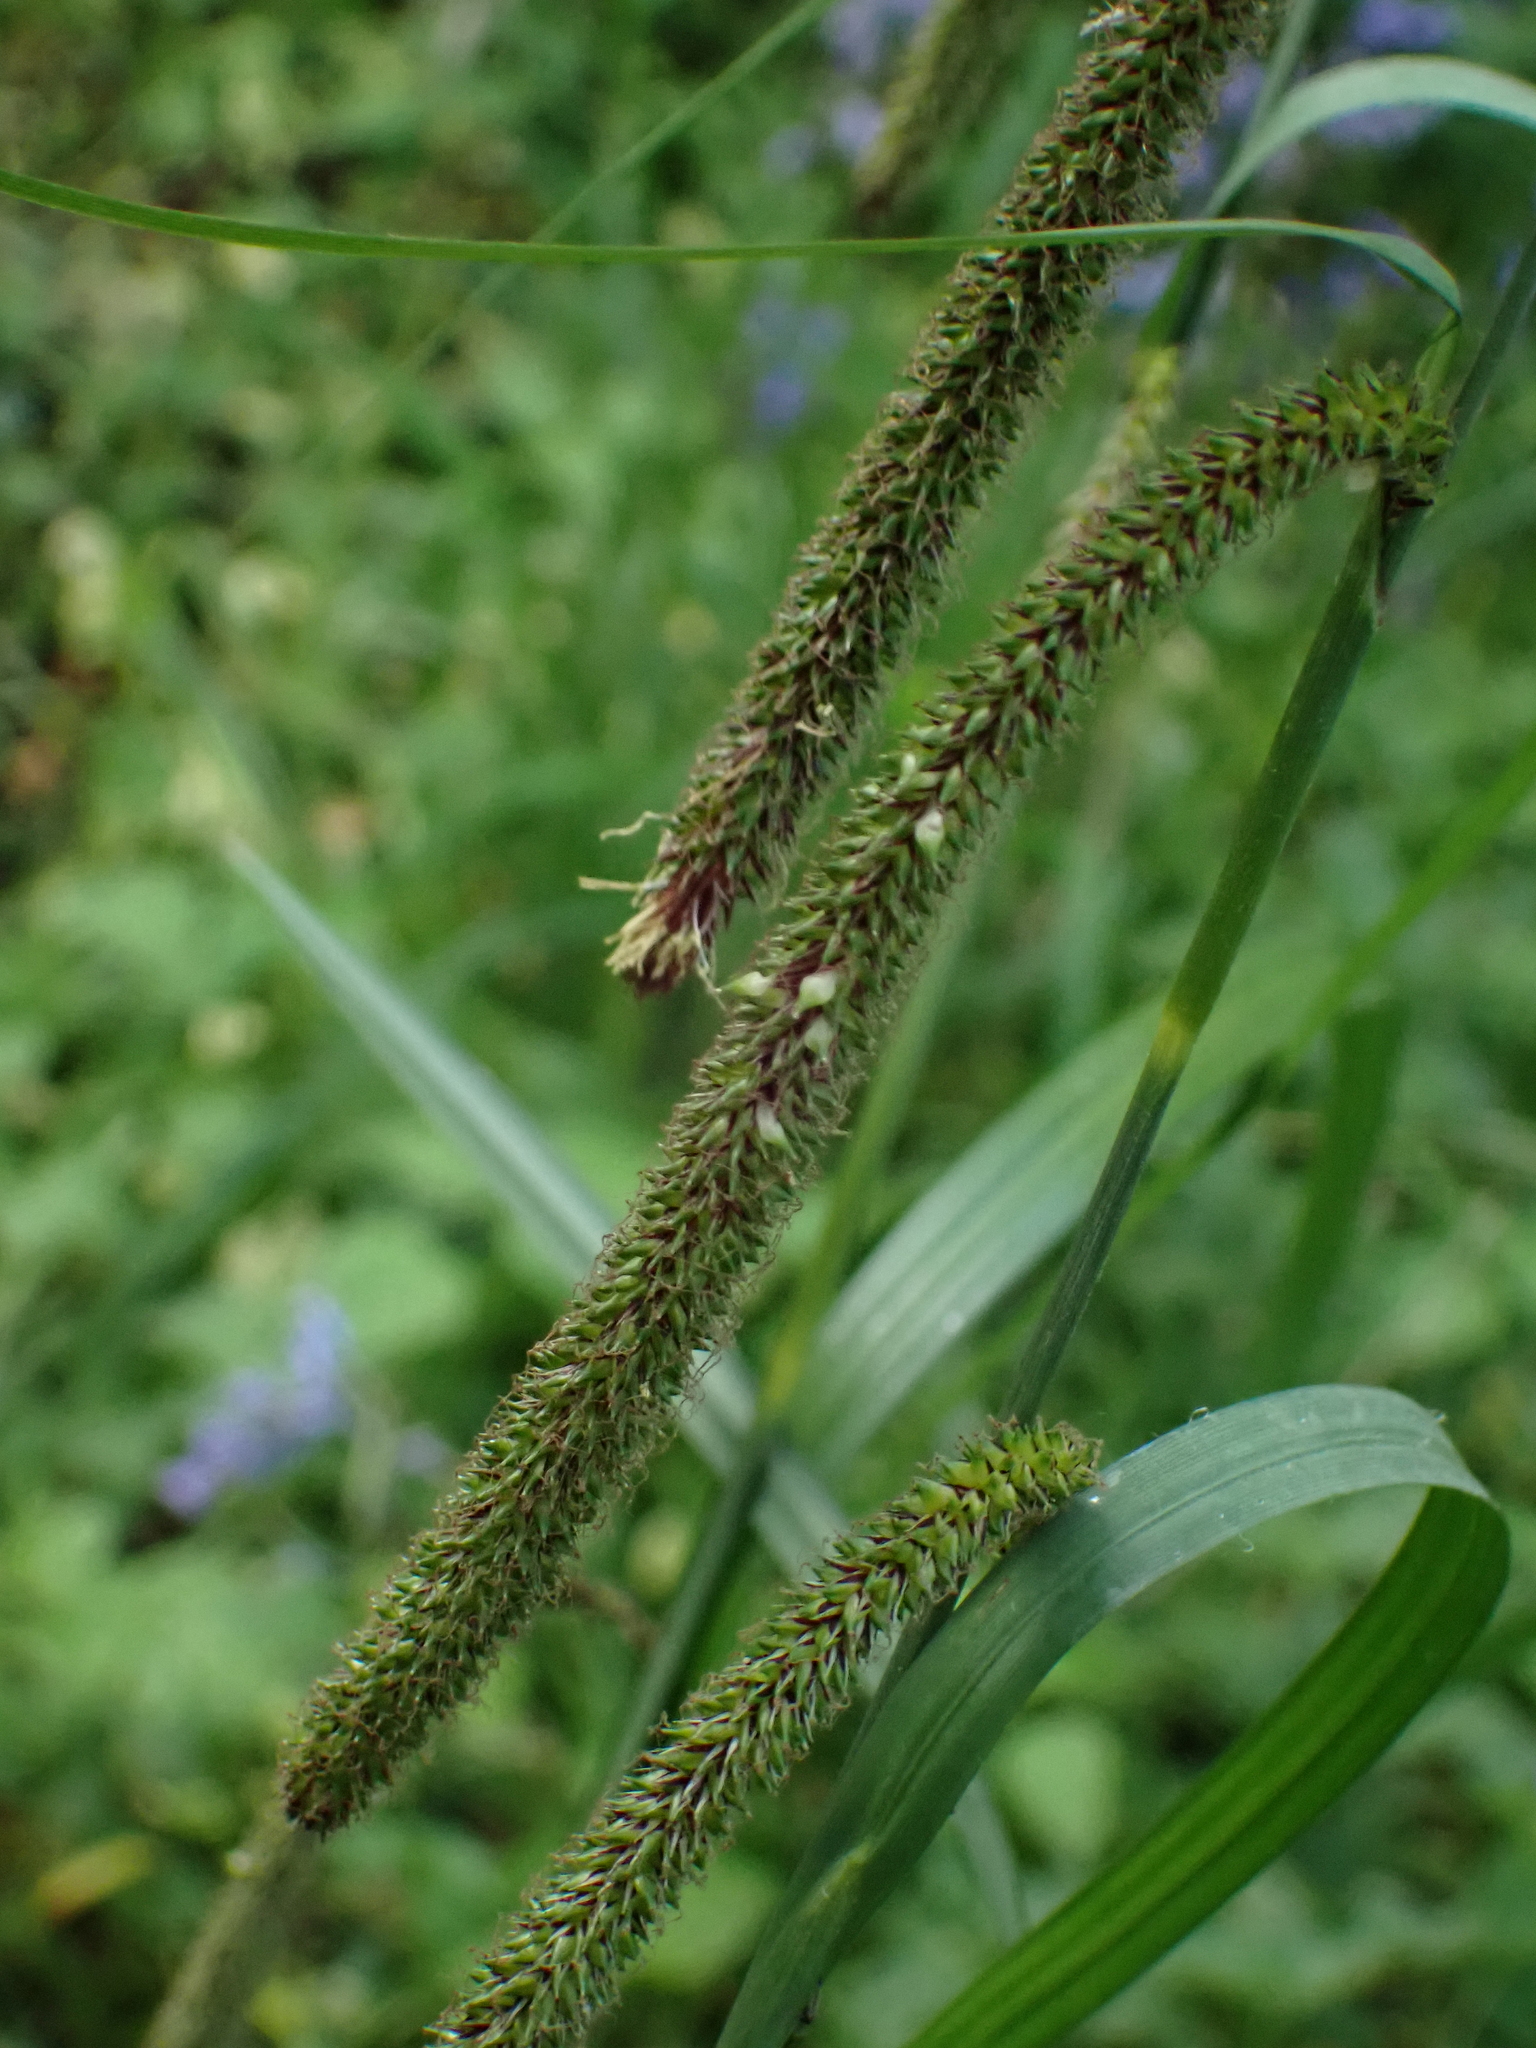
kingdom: Plantae
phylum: Tracheophyta
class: Liliopsida
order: Poales
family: Cyperaceae
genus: Carex
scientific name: Carex pendula
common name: Pendulous sedge
